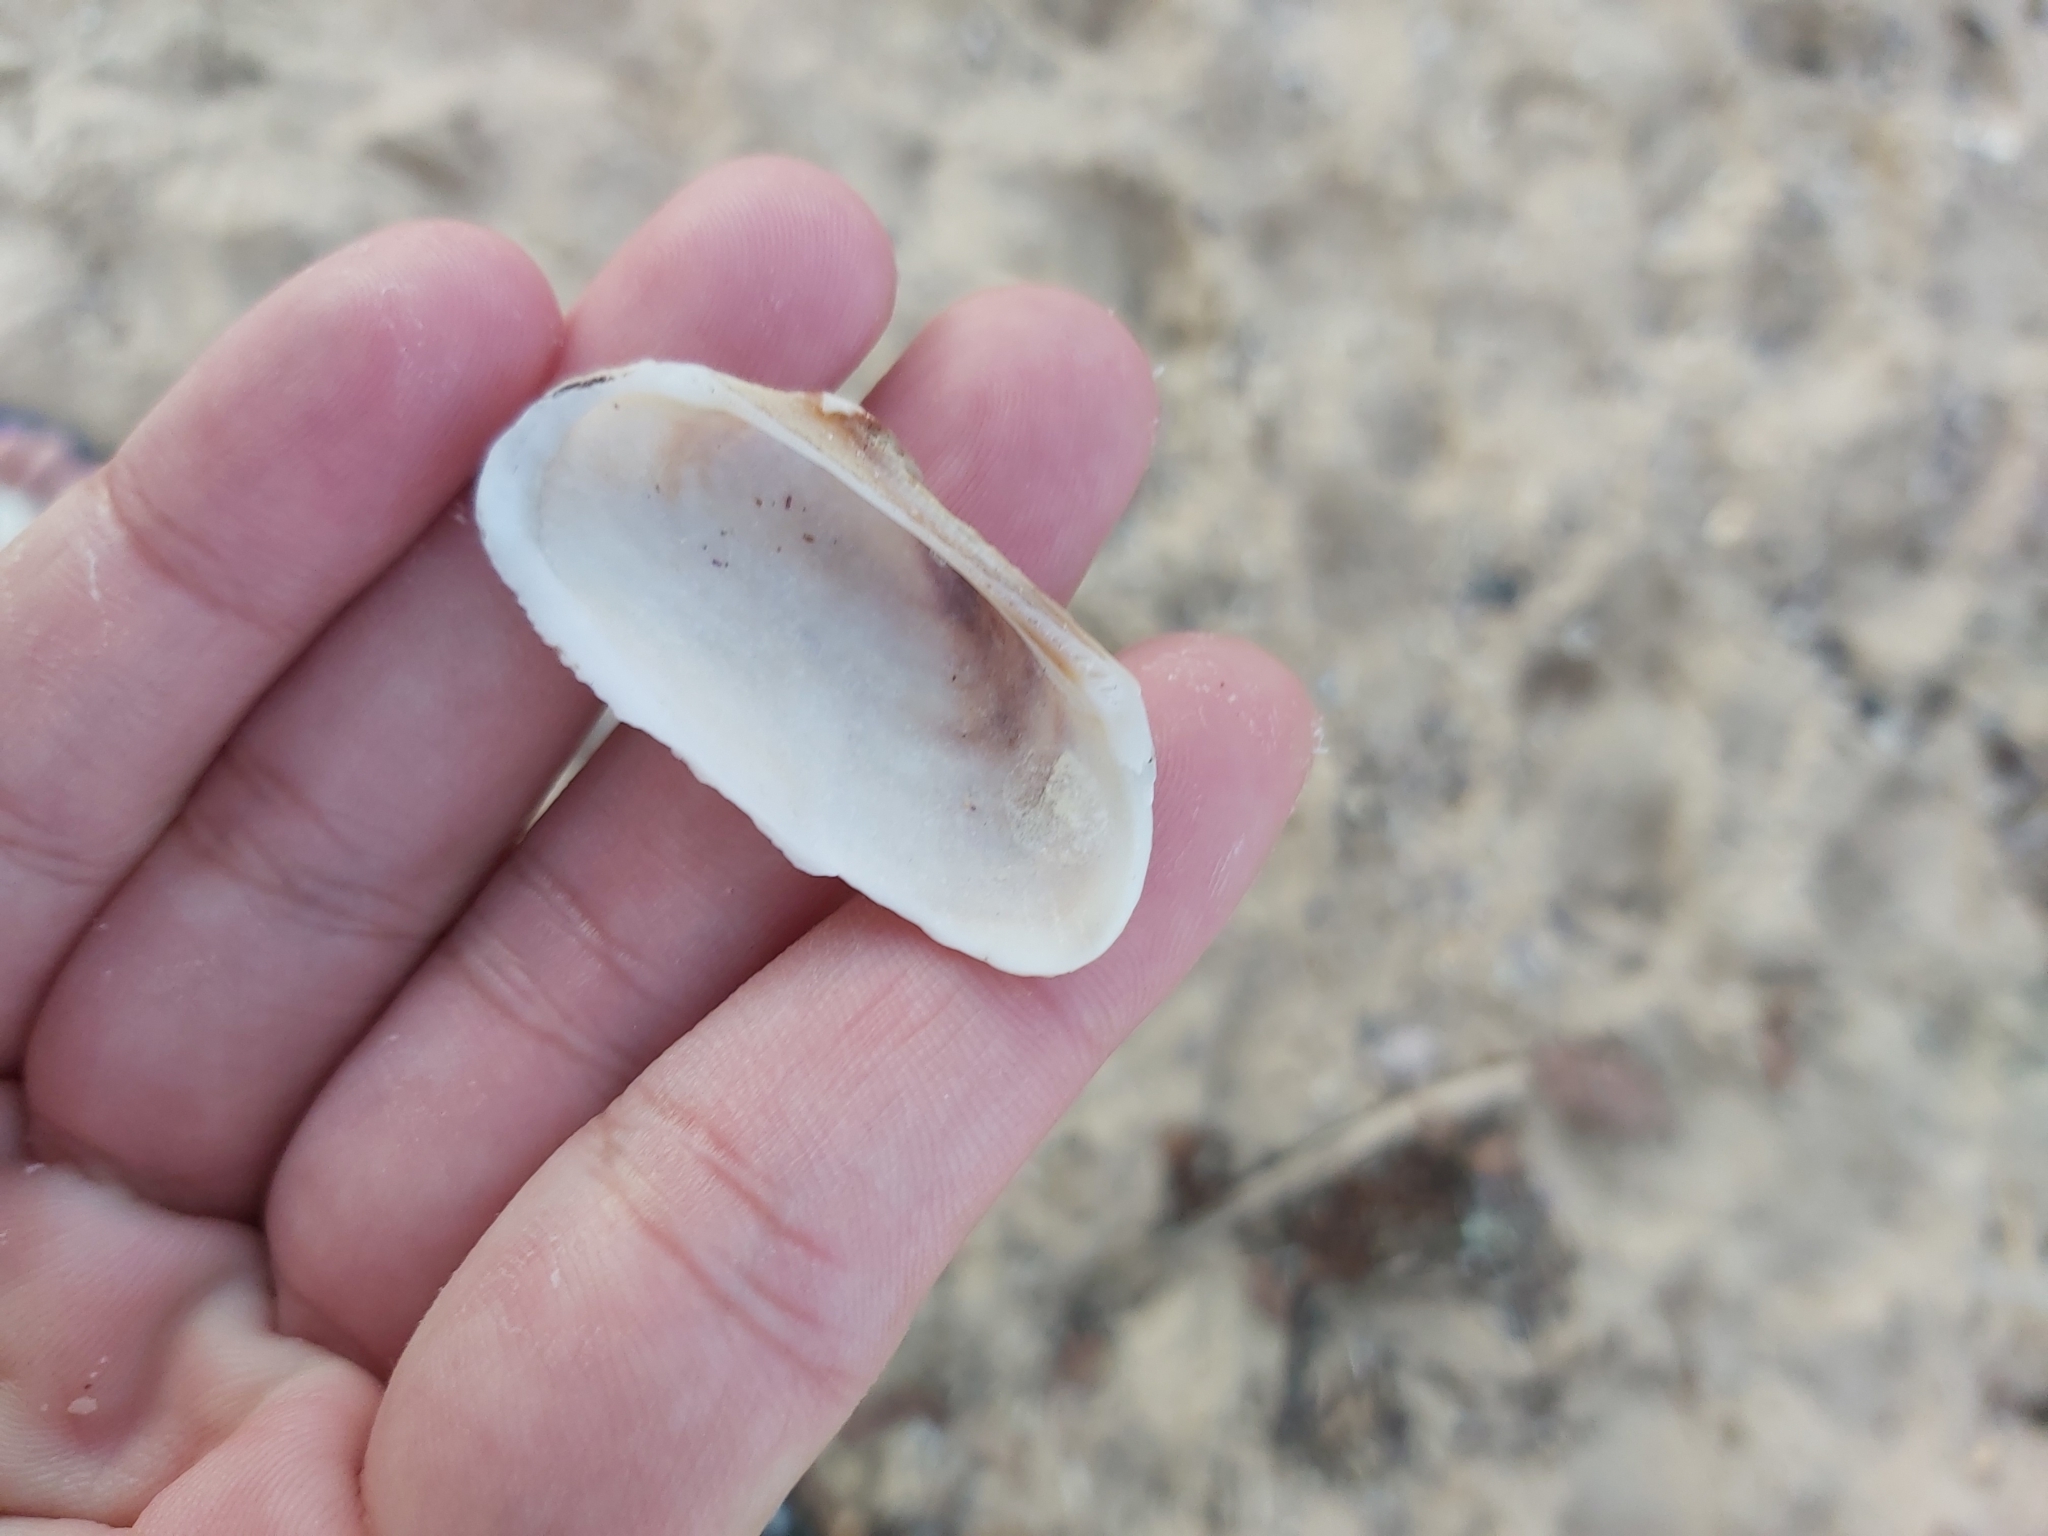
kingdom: Animalia
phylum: Mollusca
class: Bivalvia
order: Arcida
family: Arcidae
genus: Barbatia
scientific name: Barbatia pistachia
